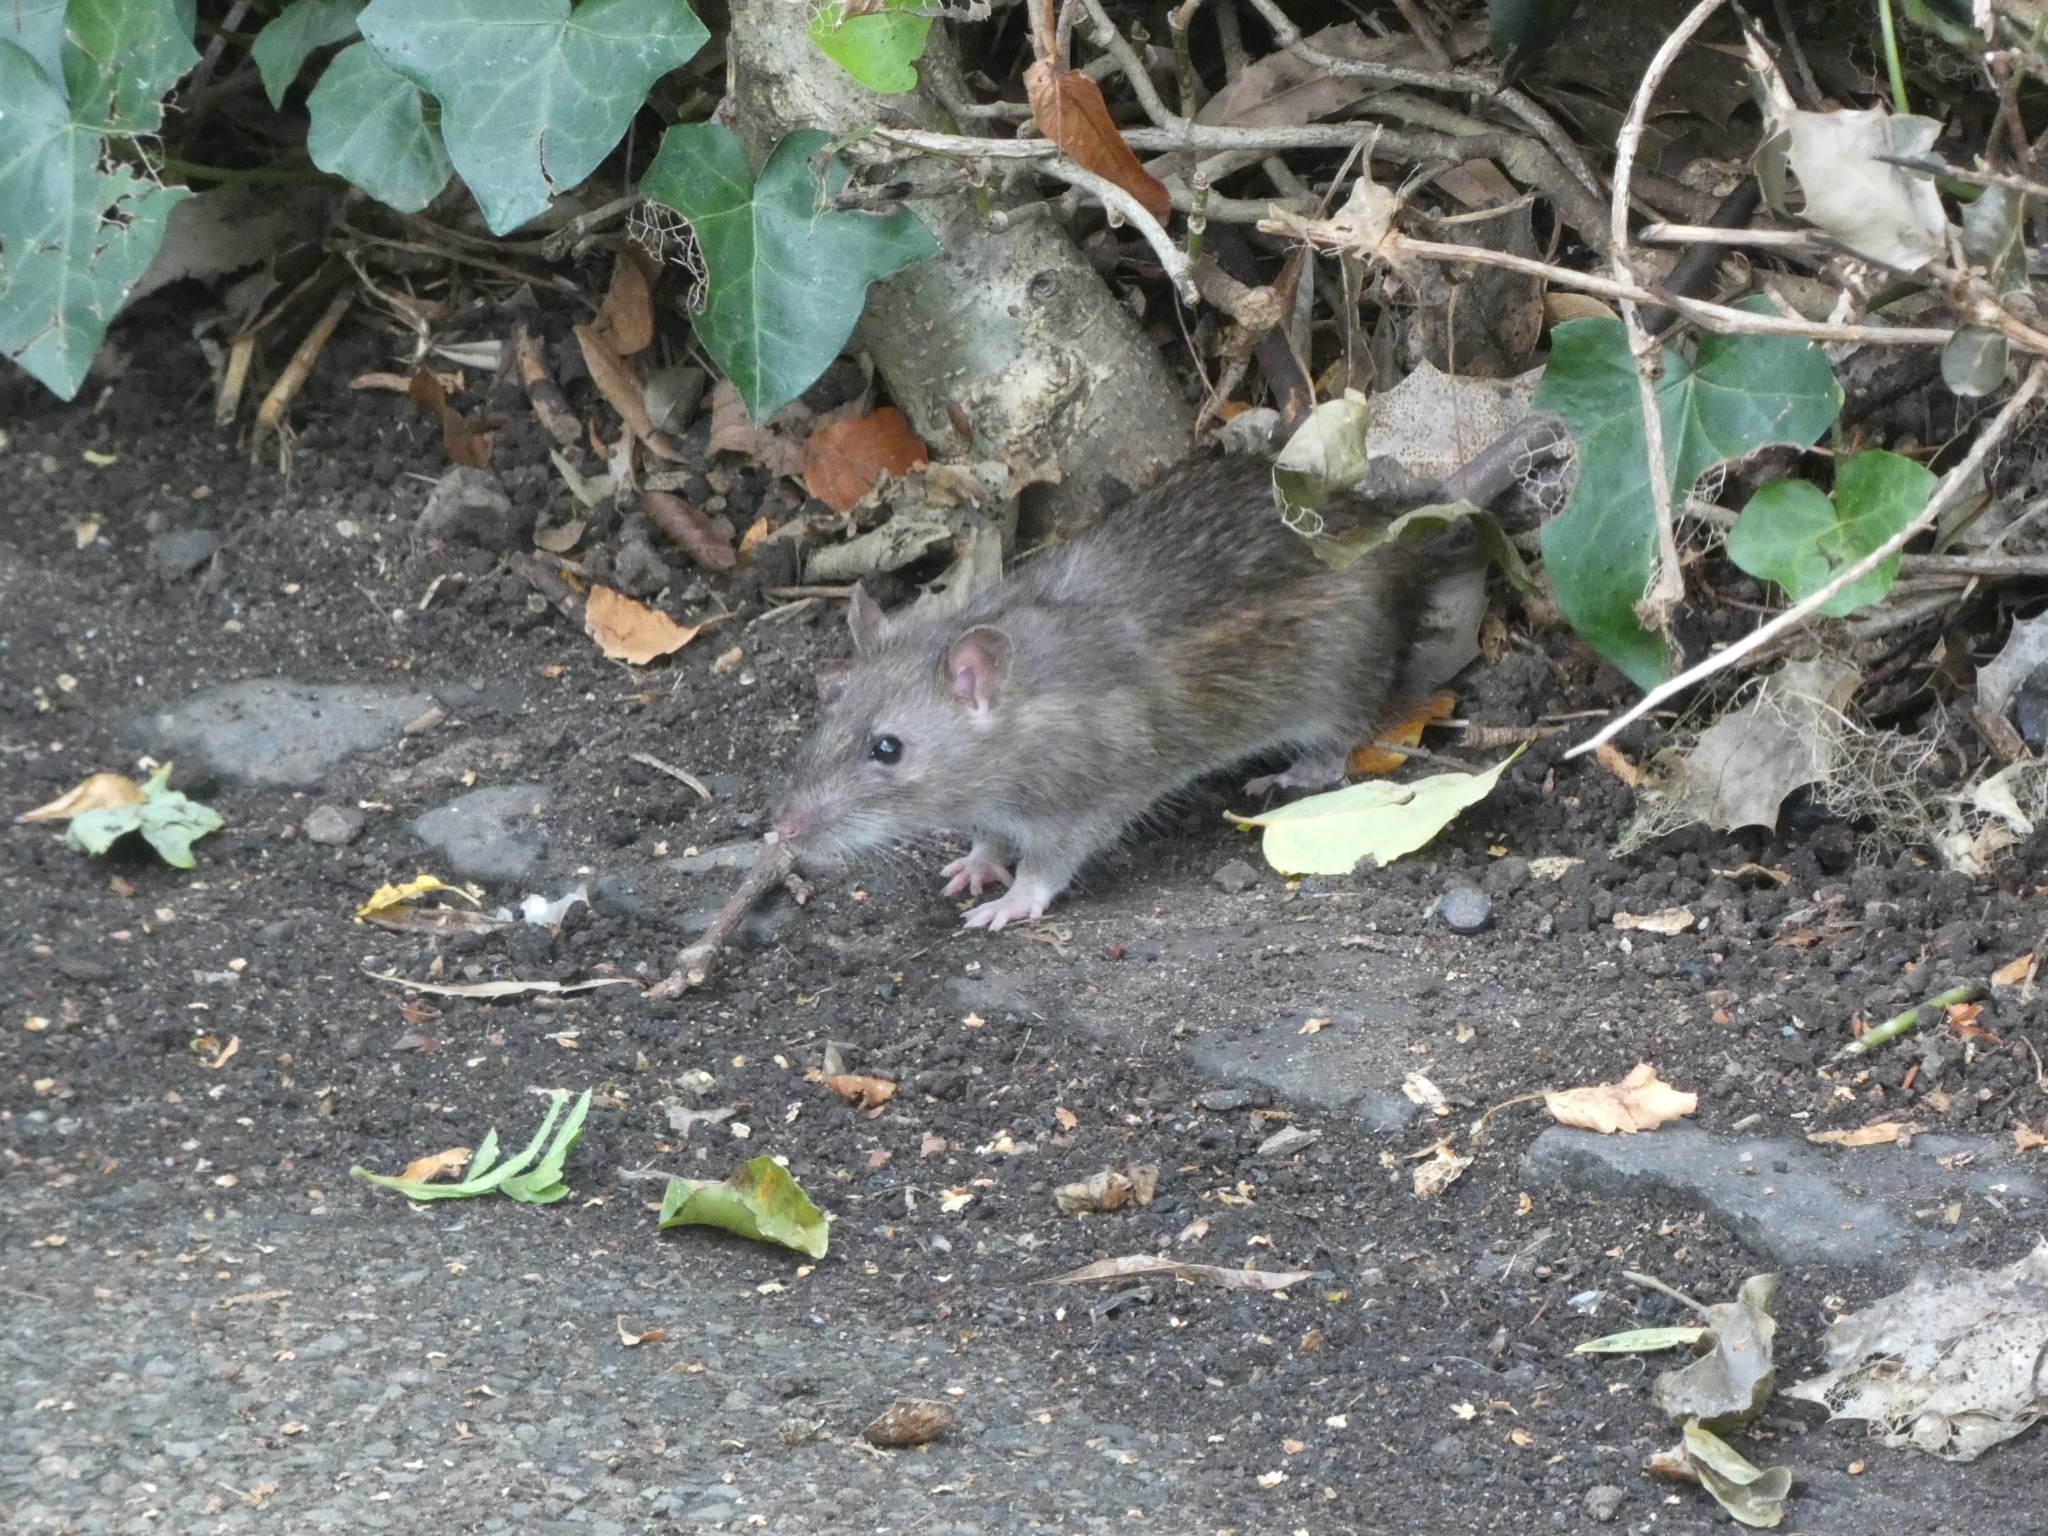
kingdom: Animalia
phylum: Chordata
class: Mammalia
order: Rodentia
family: Muridae
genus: Rattus
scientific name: Rattus norvegicus
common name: Brown rat
